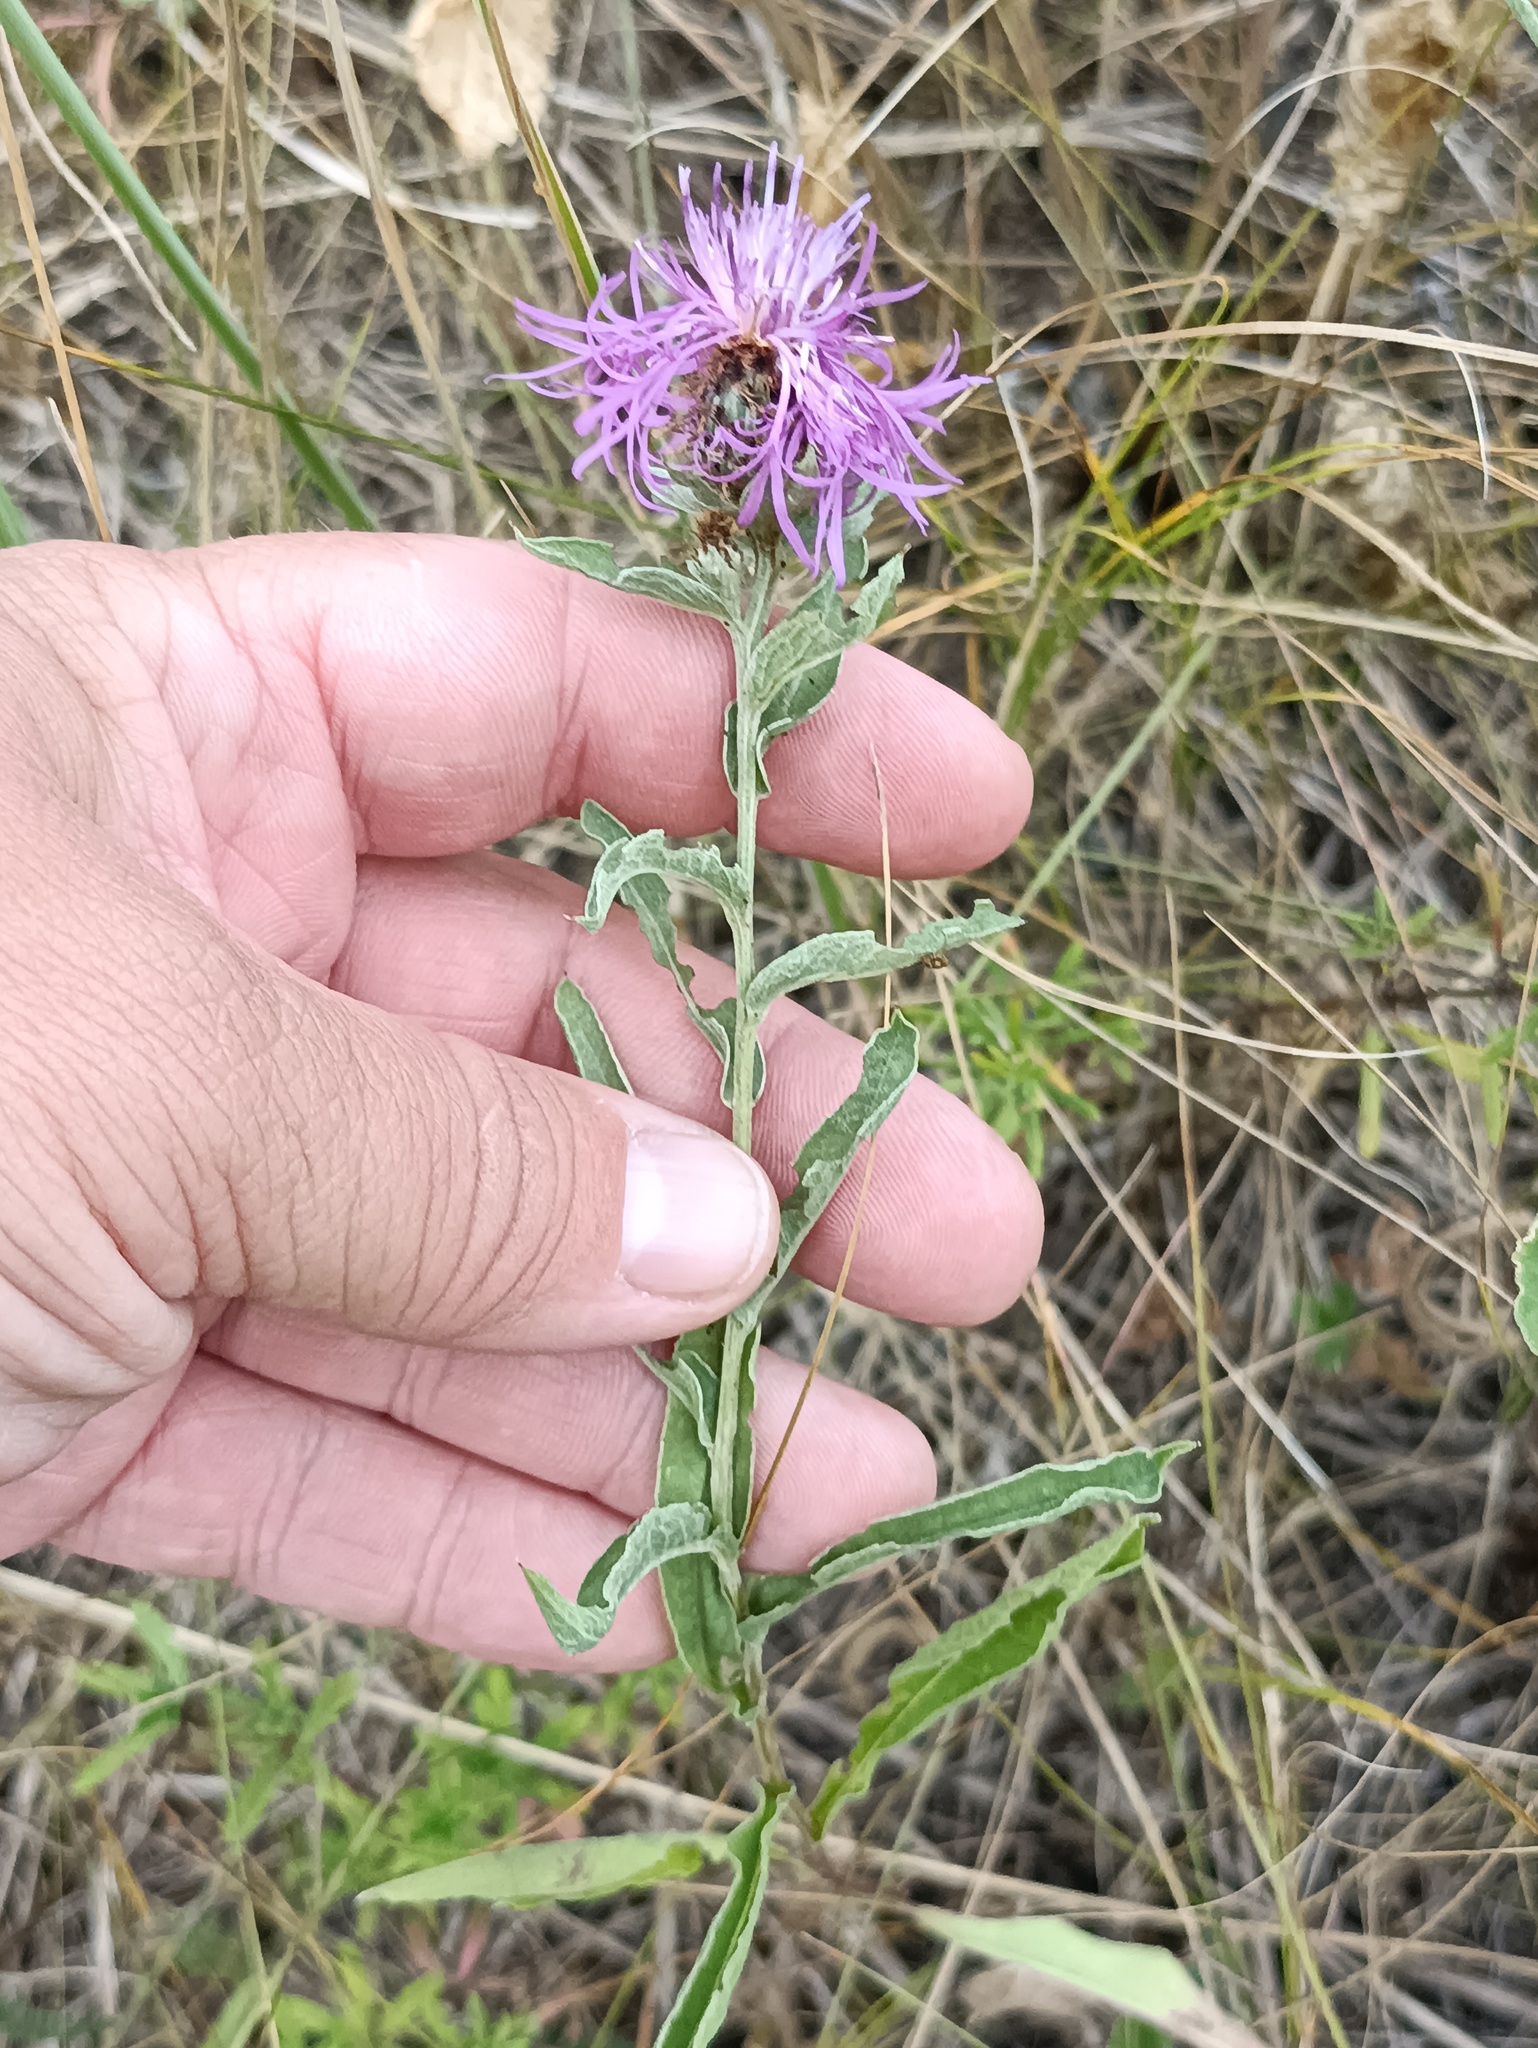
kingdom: Plantae
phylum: Tracheophyta
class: Magnoliopsida
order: Asterales
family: Asteraceae
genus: Centaurea
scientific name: Centaurea jacea
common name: Brown knapweed
